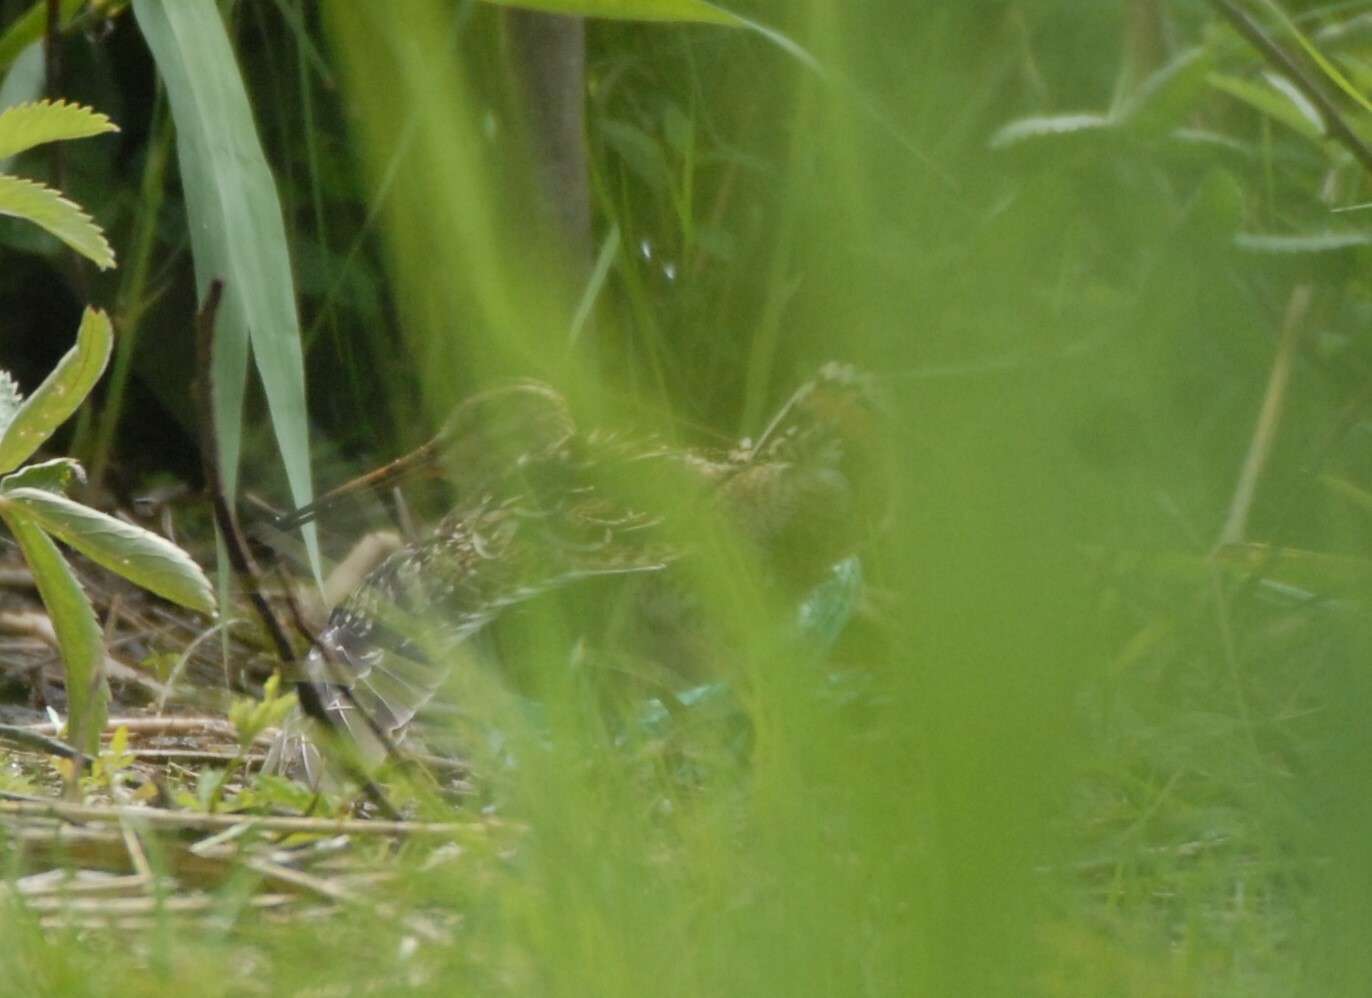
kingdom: Animalia
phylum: Chordata
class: Aves
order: Charadriiformes
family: Scolopacidae
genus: Gallinago
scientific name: Gallinago gallinago
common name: Common snipe
